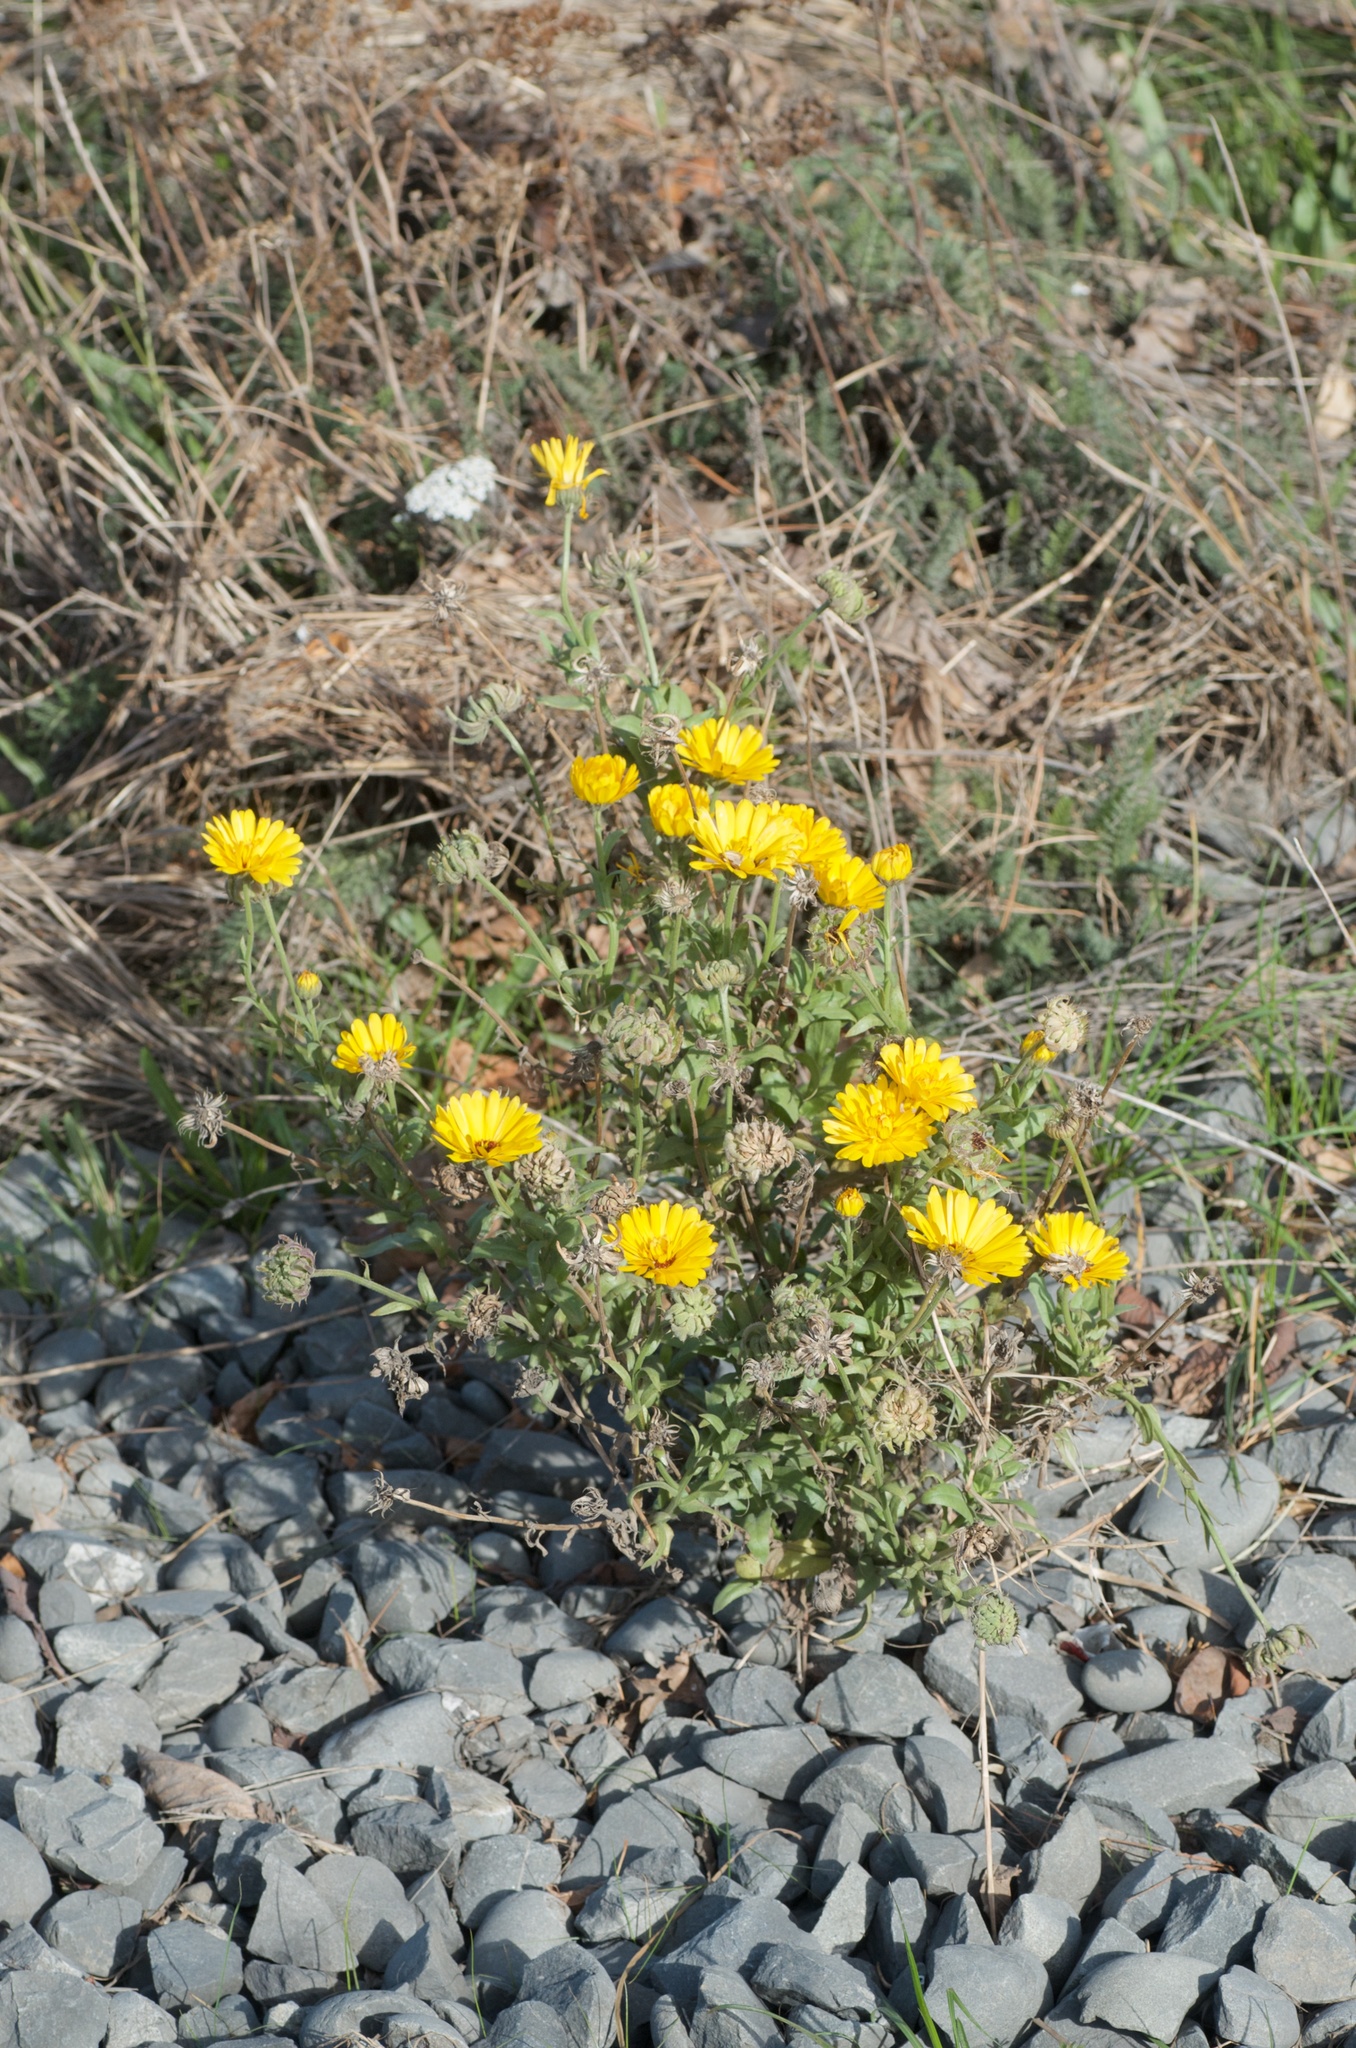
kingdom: Plantae
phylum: Tracheophyta
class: Magnoliopsida
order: Asterales
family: Asteraceae
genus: Calendula
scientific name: Calendula officinalis
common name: Pot marigold
